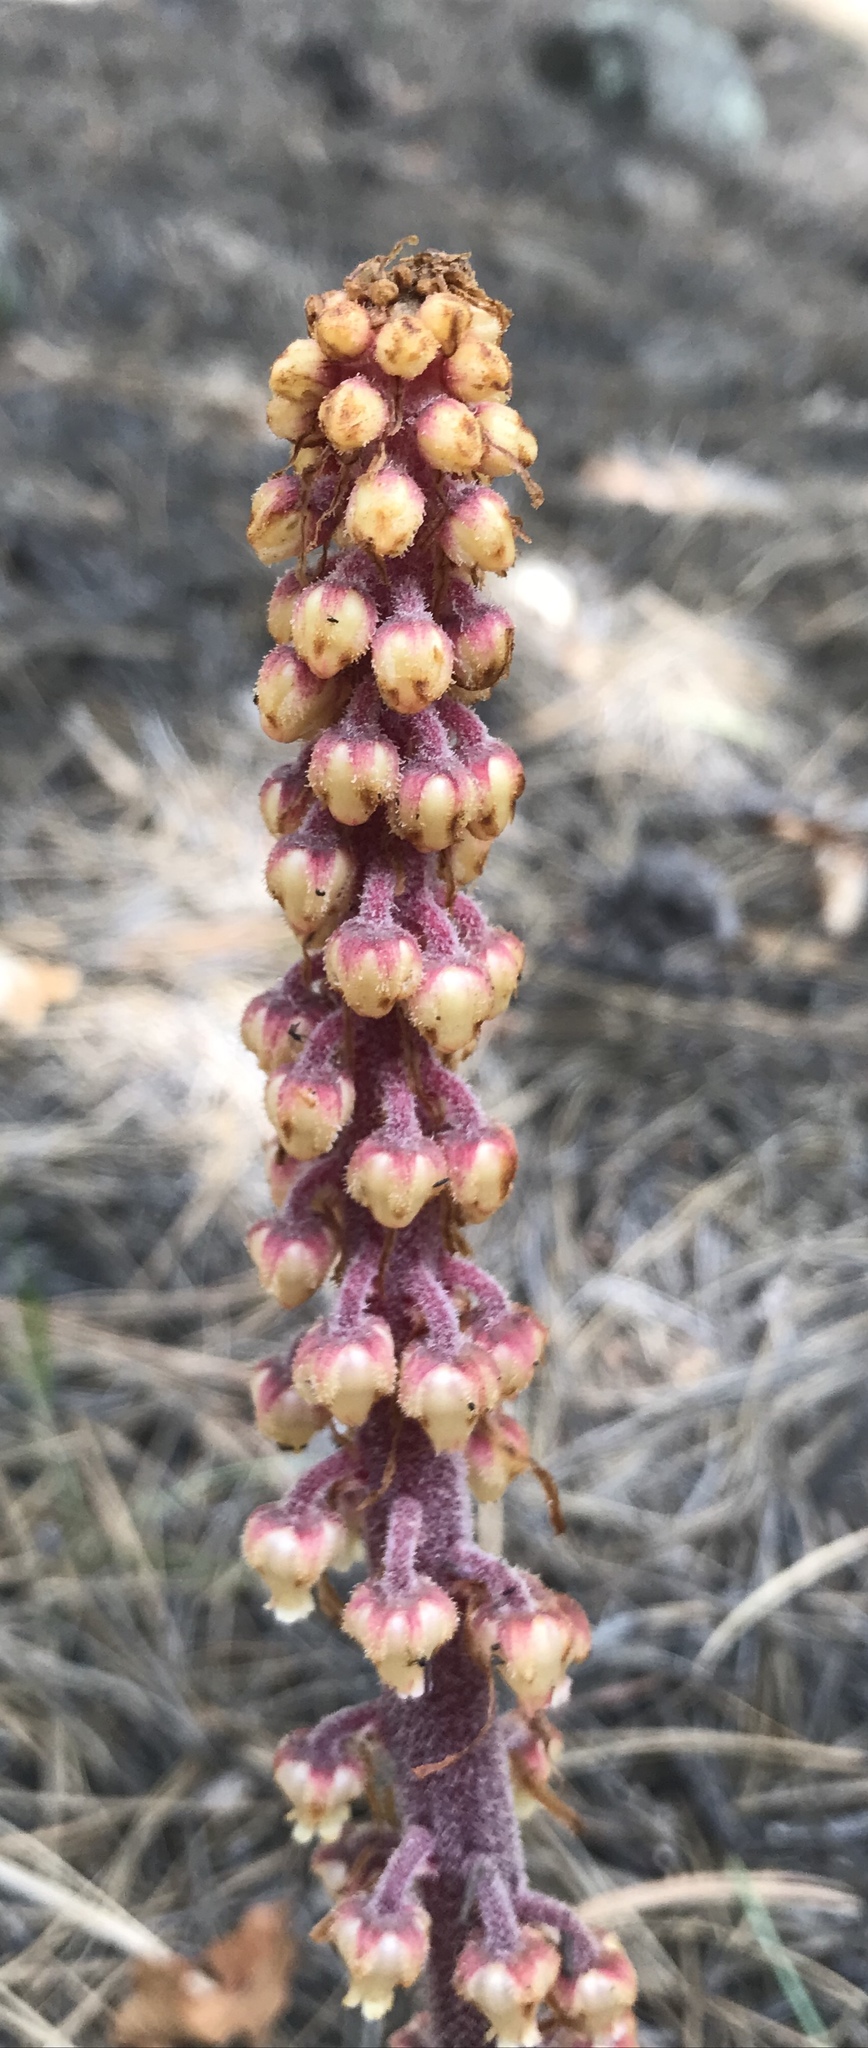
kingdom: Plantae
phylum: Tracheophyta
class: Magnoliopsida
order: Ericales
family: Ericaceae
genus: Pterospora
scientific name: Pterospora andromedea
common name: Giant bird's-nest
